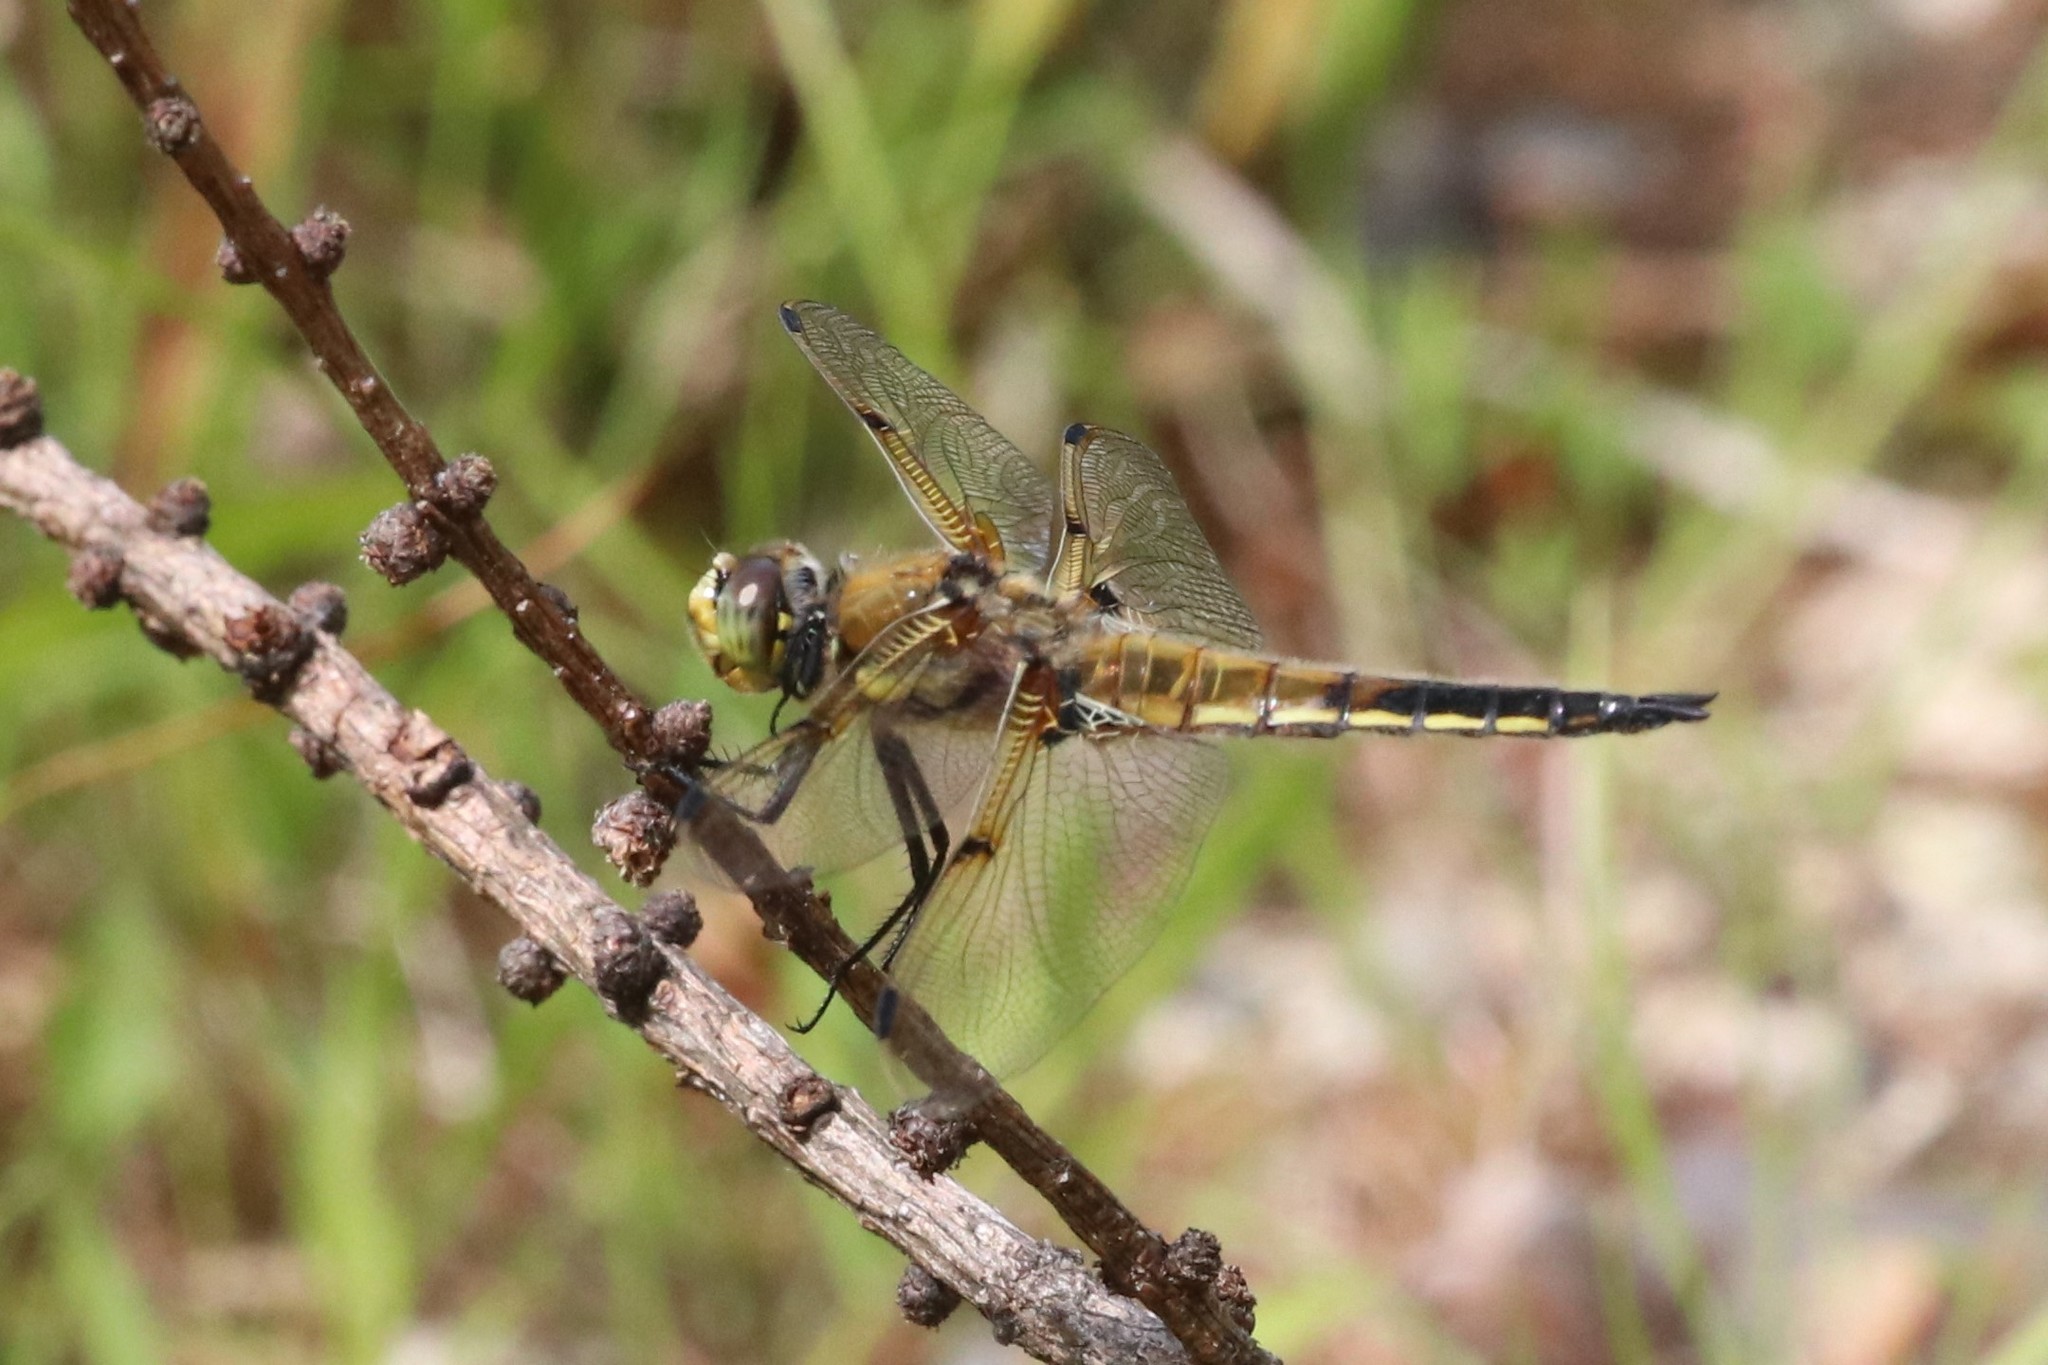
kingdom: Animalia
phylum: Arthropoda
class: Insecta
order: Odonata
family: Libellulidae
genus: Libellula
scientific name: Libellula quadrimaculata
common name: Four-spotted chaser
